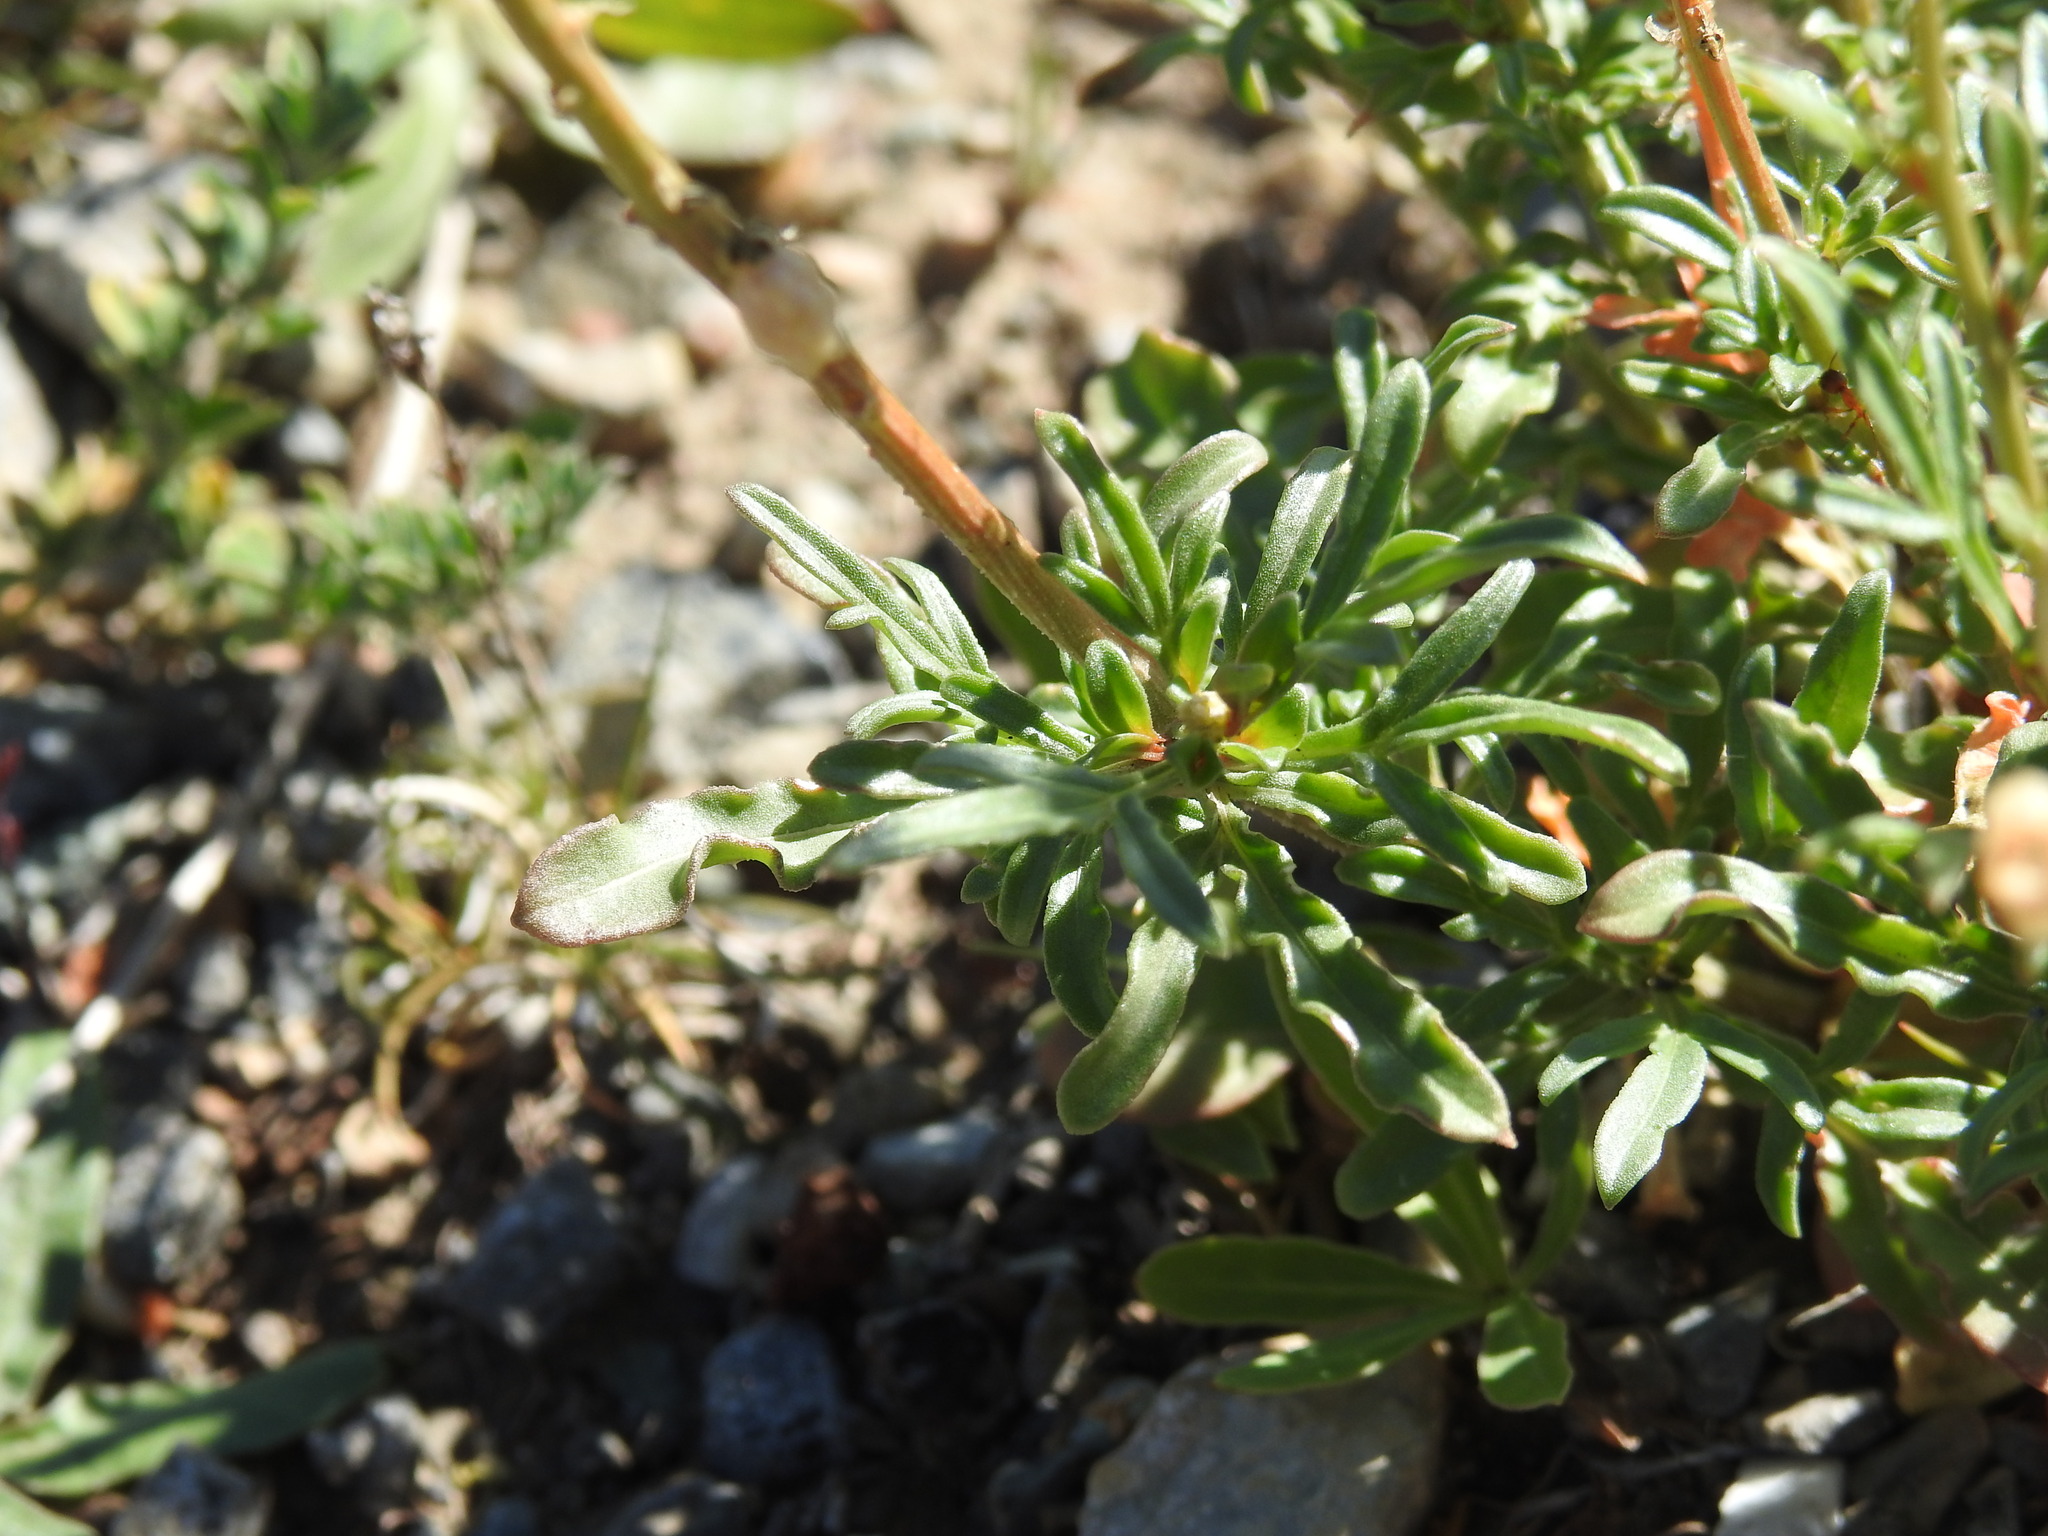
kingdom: Plantae
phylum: Tracheophyta
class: Magnoliopsida
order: Brassicales
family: Resedaceae
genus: Reseda
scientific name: Reseda lutea
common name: Wild mignonette
